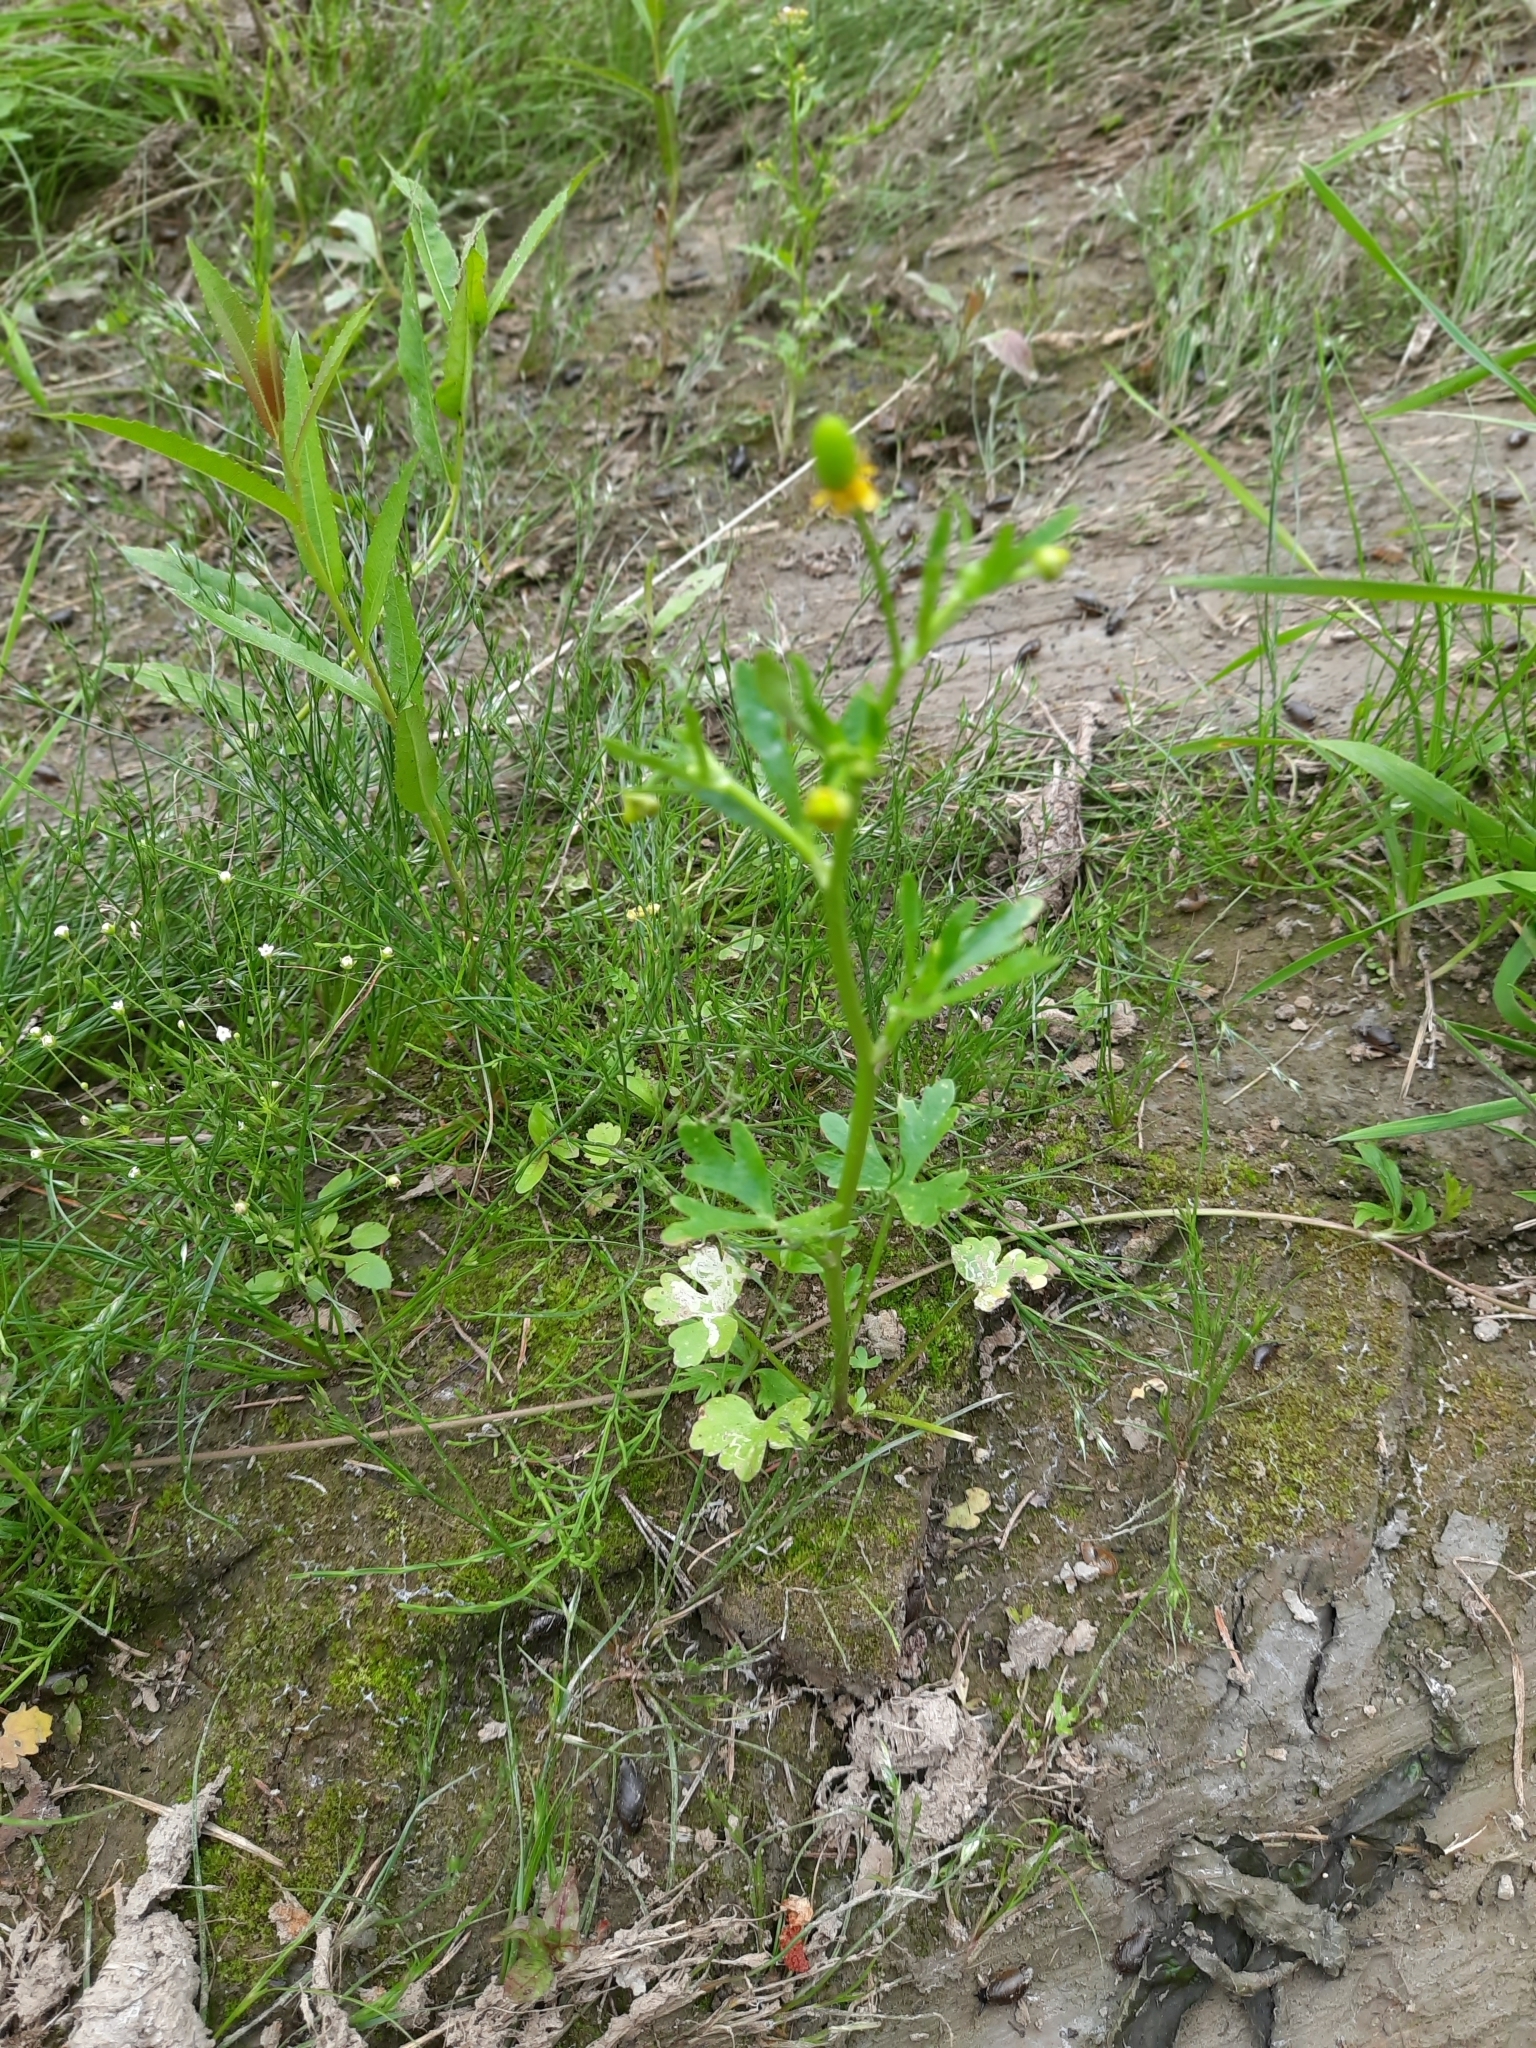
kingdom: Plantae
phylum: Tracheophyta
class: Magnoliopsida
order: Ranunculales
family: Ranunculaceae
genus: Ranunculus
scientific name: Ranunculus sceleratus
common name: Celery-leaved buttercup
